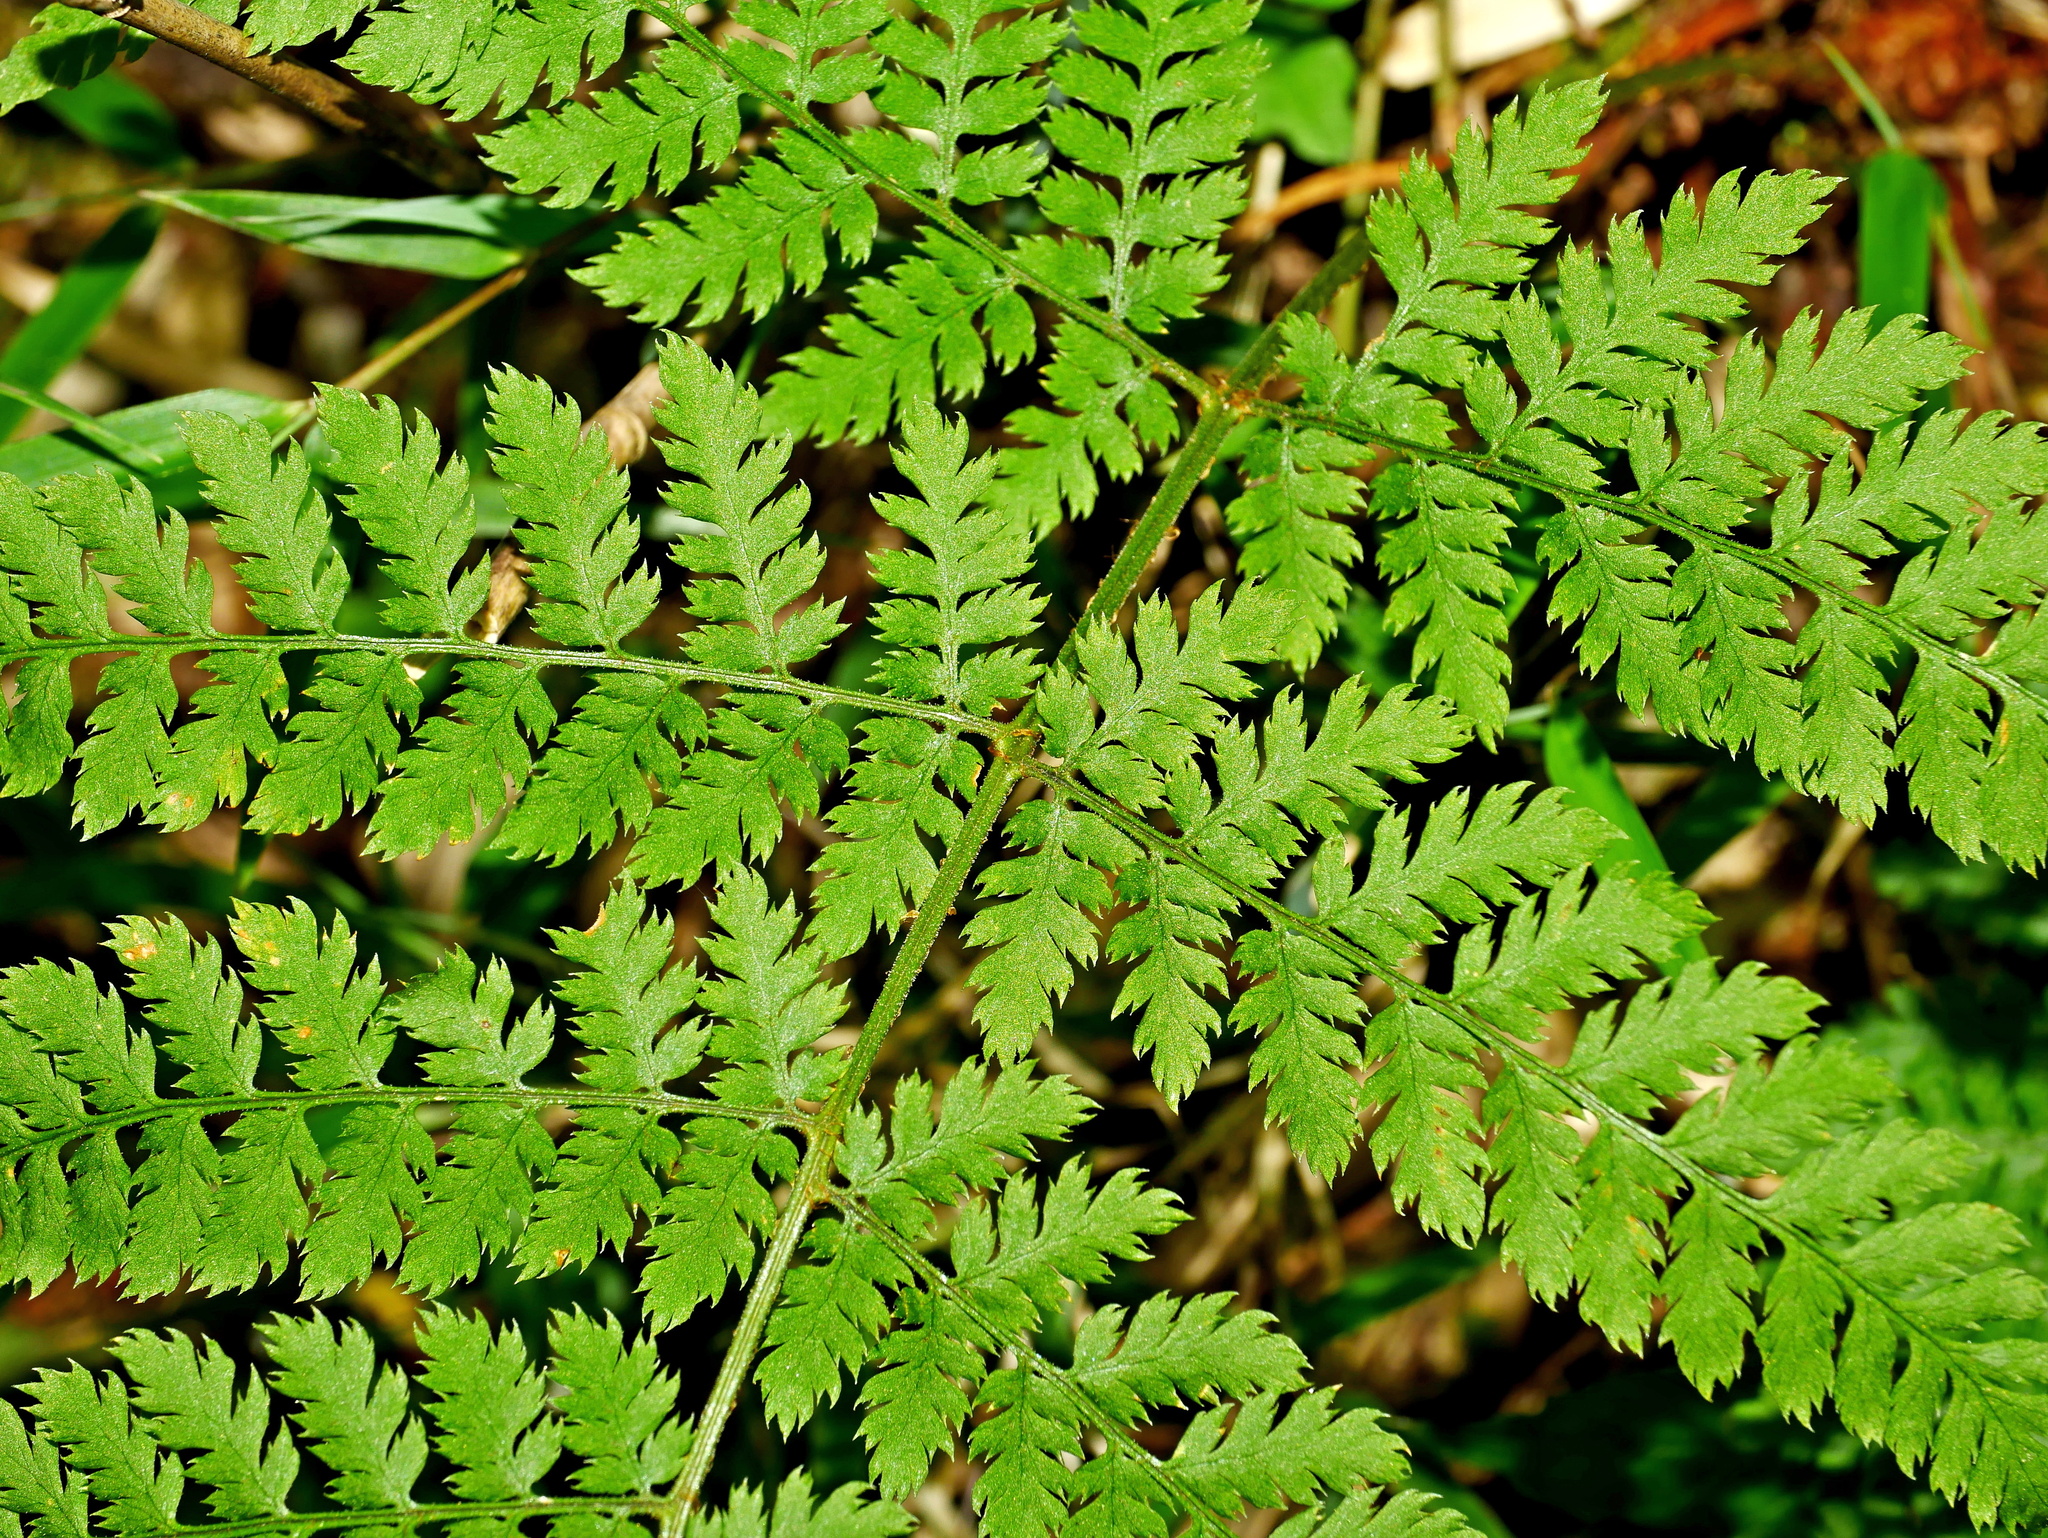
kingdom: Plantae
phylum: Tracheophyta
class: Polypodiopsida
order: Polypodiales
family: Dryopteridaceae
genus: Dryopteris
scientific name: Dryopteris expansa
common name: Northern buckler fern
